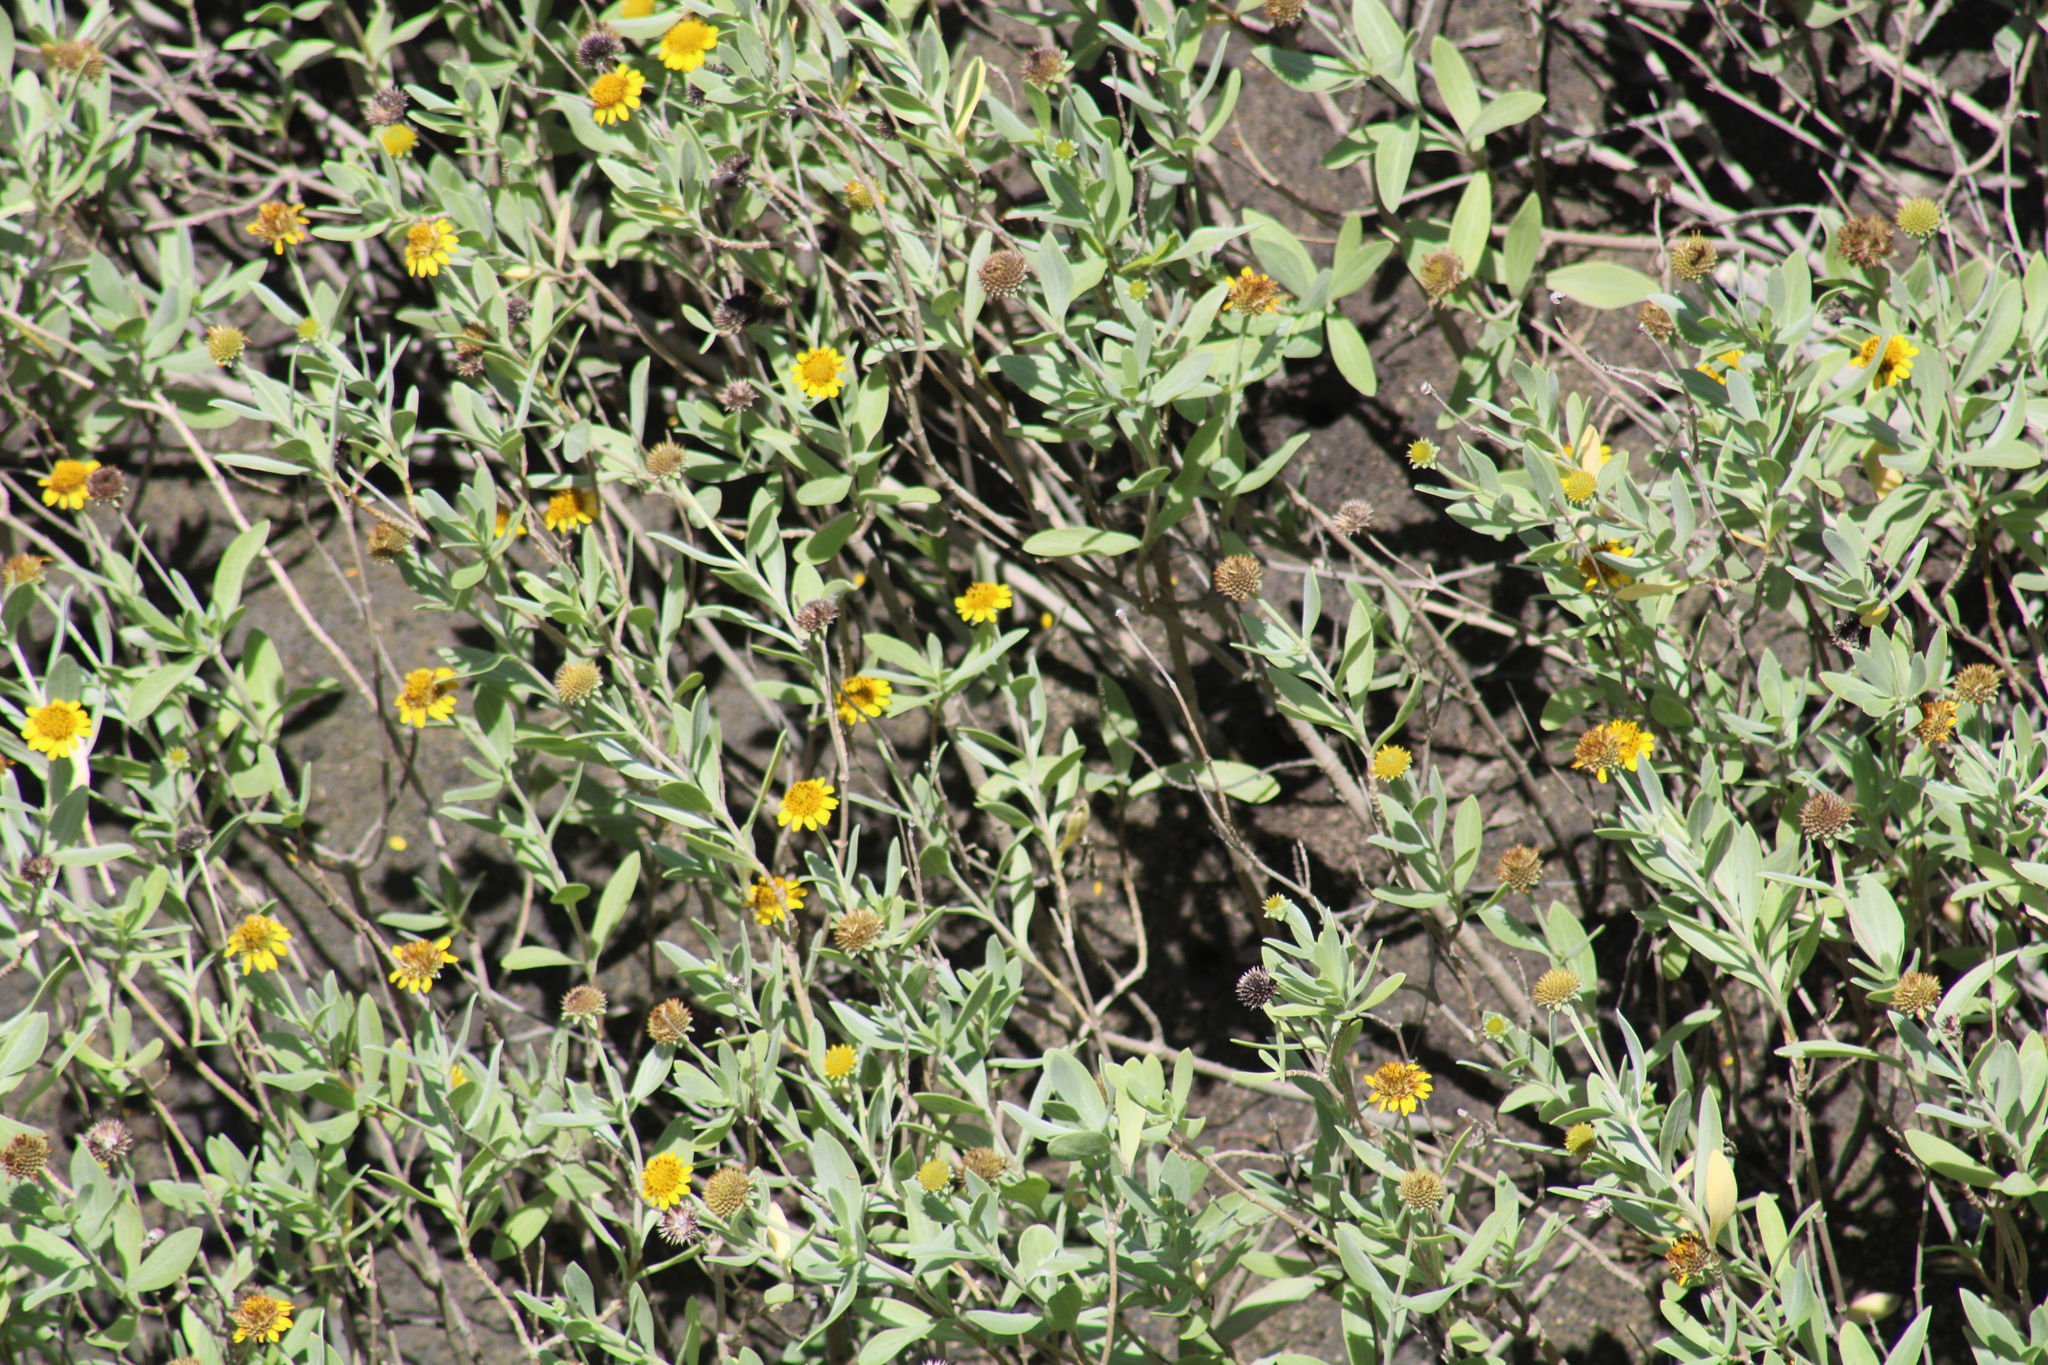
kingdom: Plantae
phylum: Tracheophyta
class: Magnoliopsida
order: Asterales
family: Asteraceae
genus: Borrichia
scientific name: Borrichia frutescens
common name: Sea oxeye
